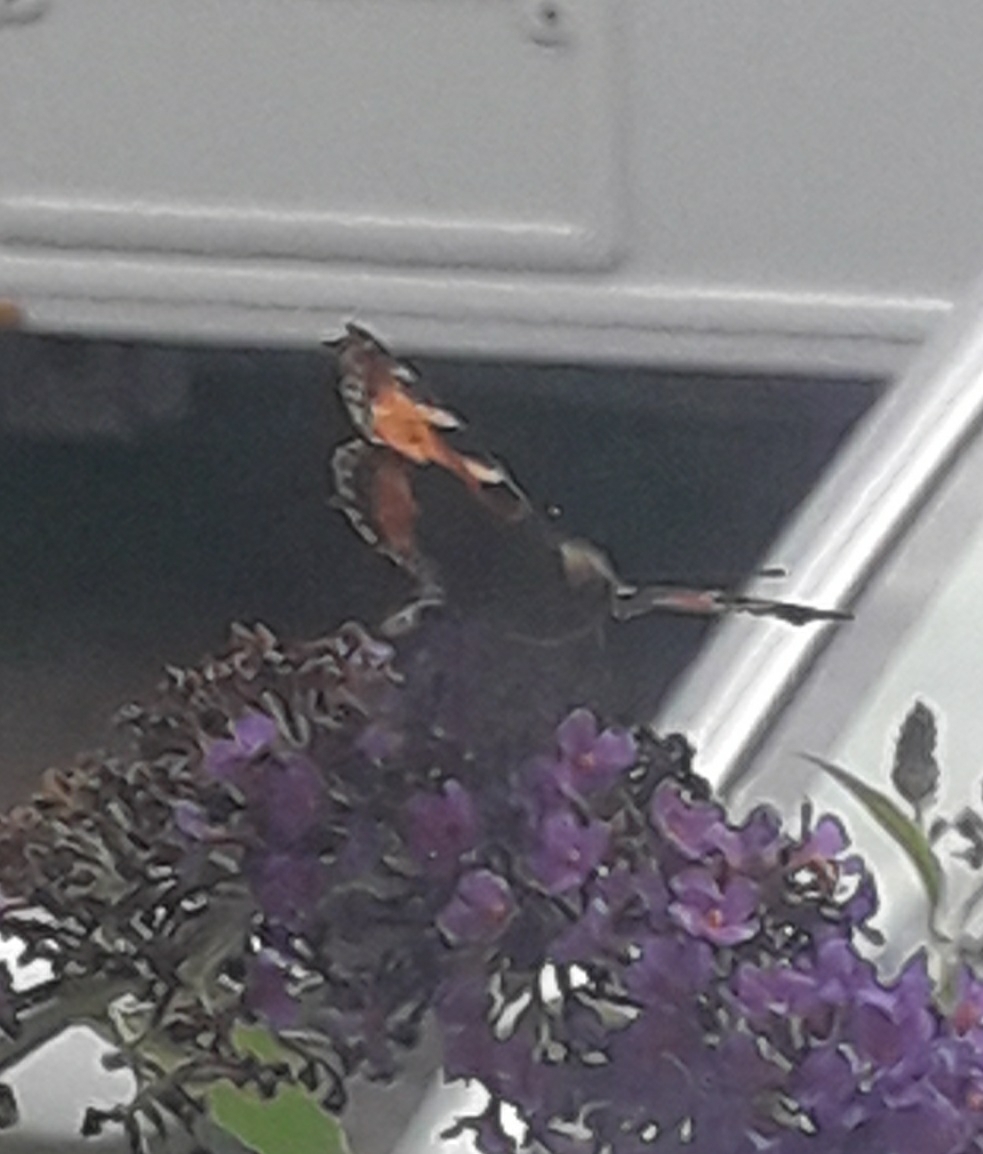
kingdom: Animalia
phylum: Arthropoda
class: Insecta
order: Lepidoptera
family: Nymphalidae
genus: Aglais
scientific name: Aglais urticae
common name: Small tortoiseshell
